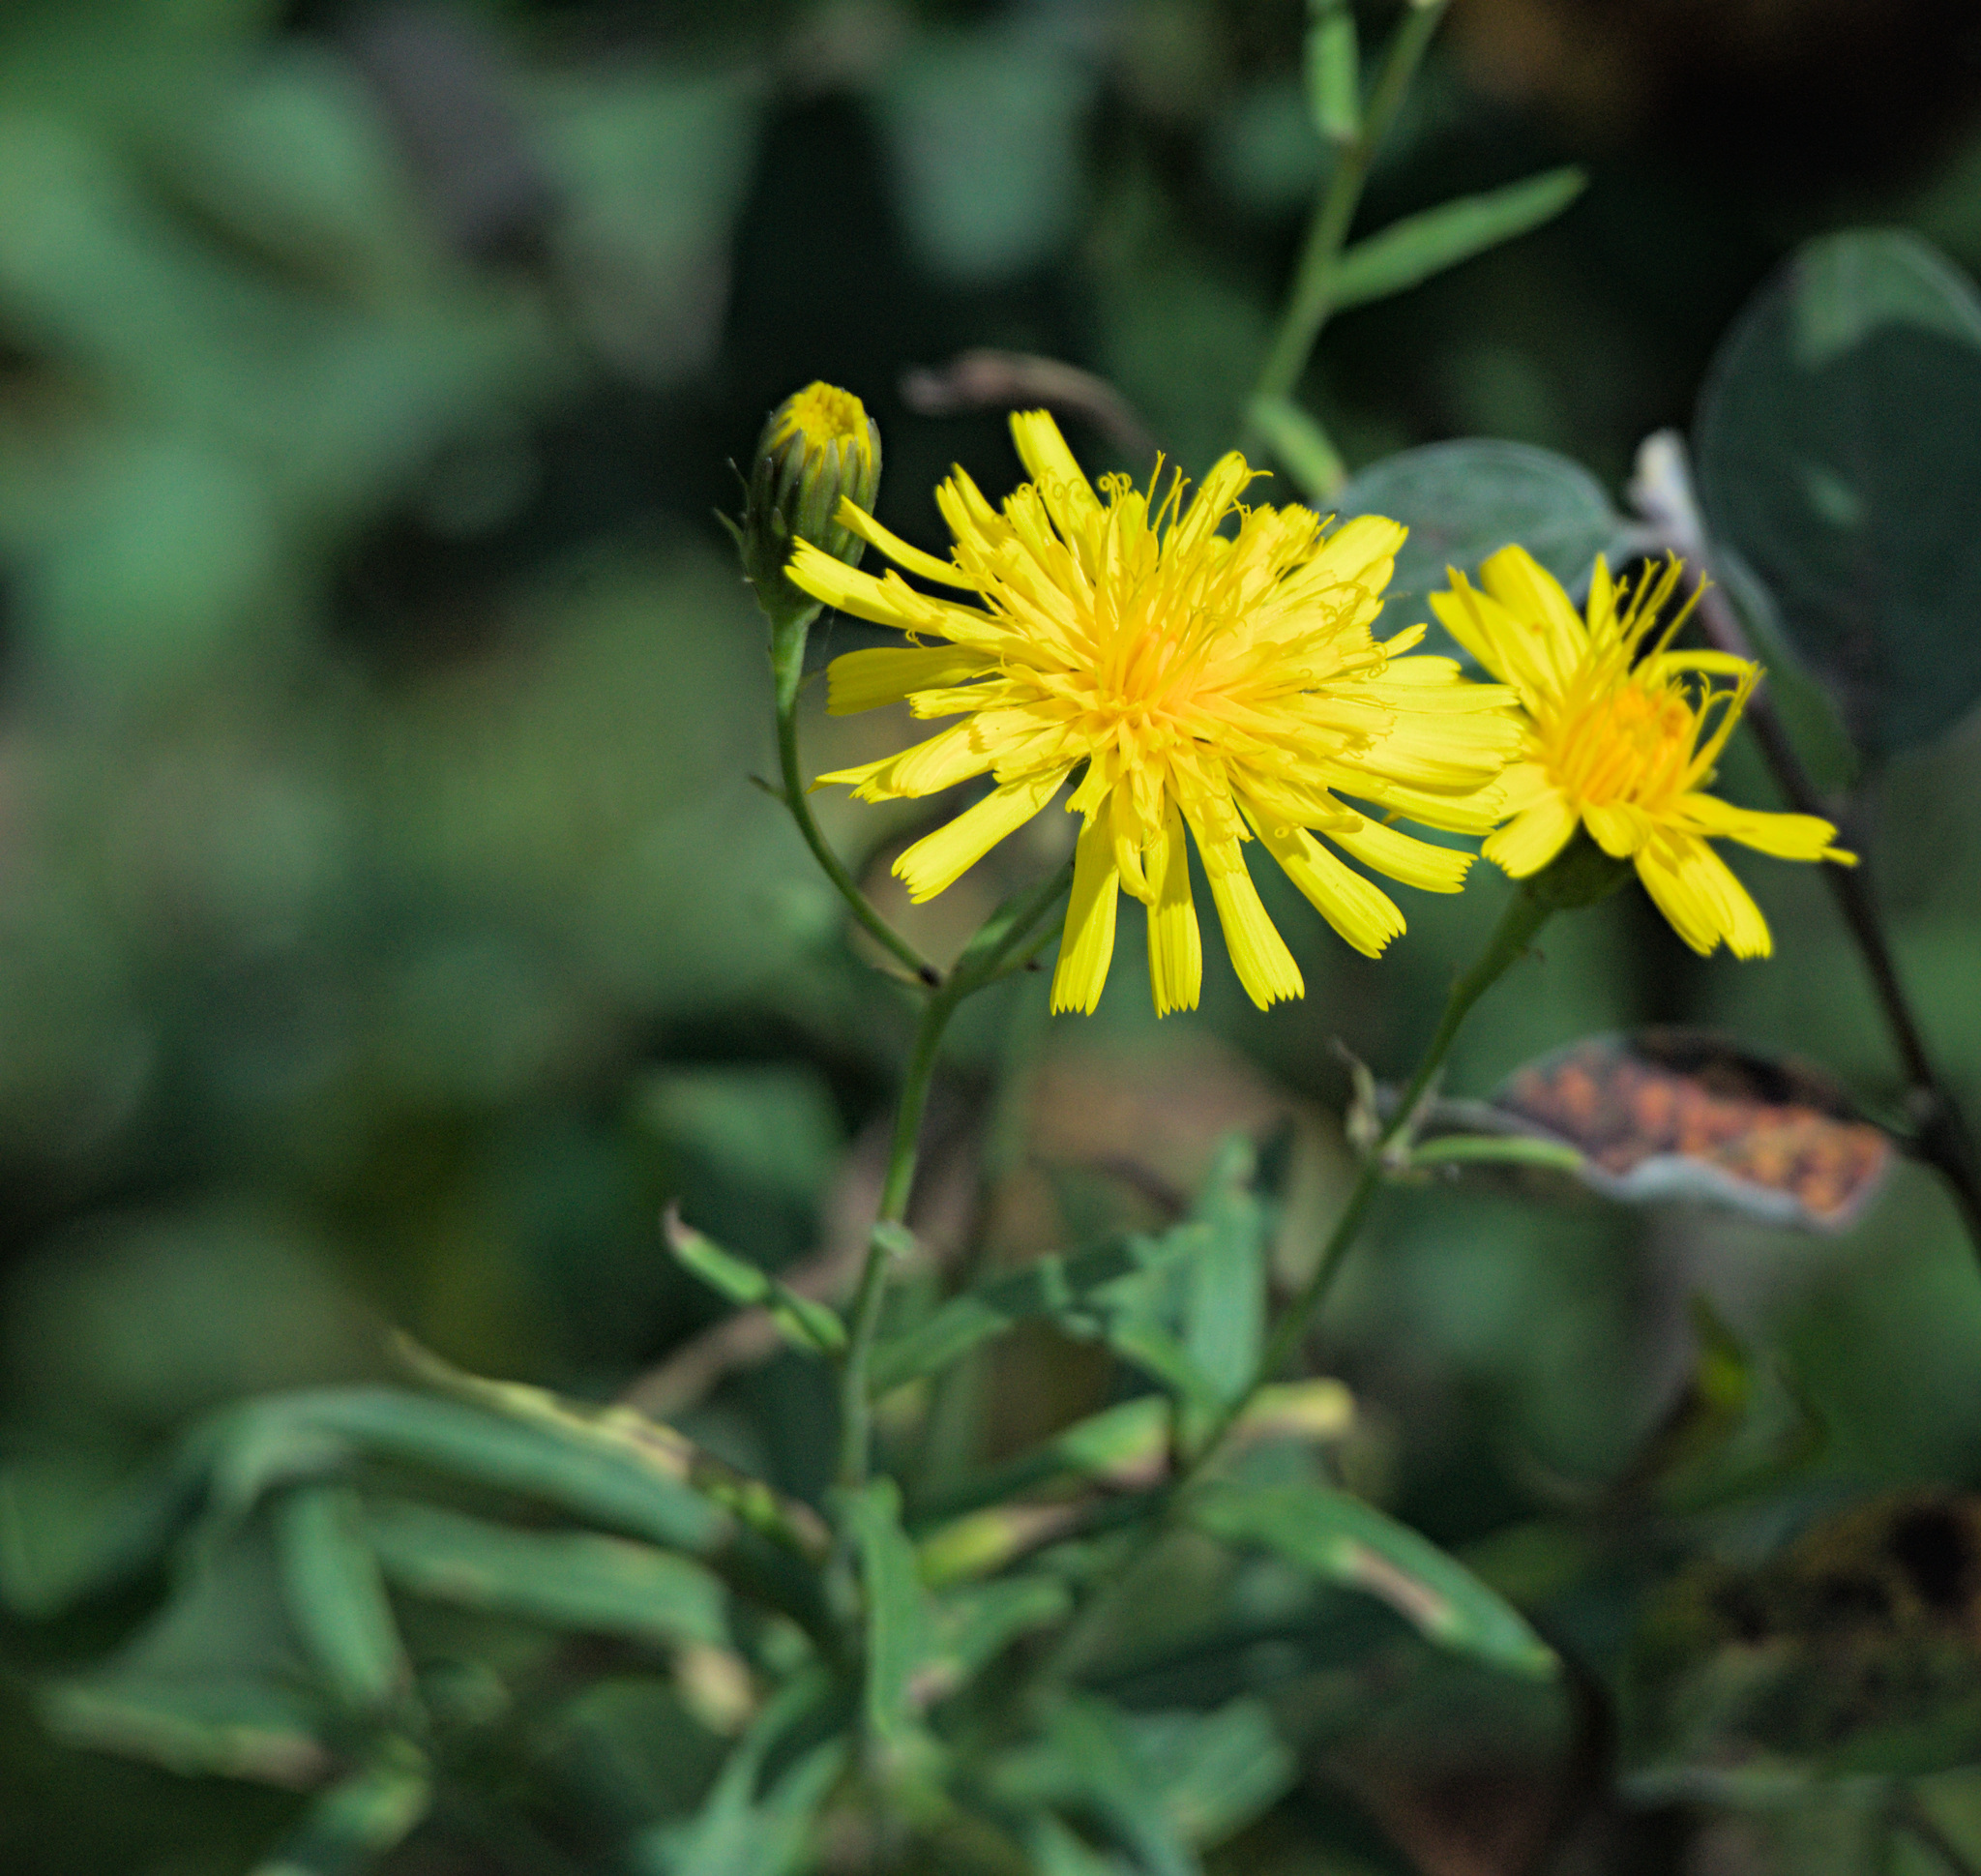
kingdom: Plantae
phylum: Tracheophyta
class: Magnoliopsida
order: Asterales
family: Asteraceae
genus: Hieracium
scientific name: Hieracium umbellatum
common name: Northern hawkweed
